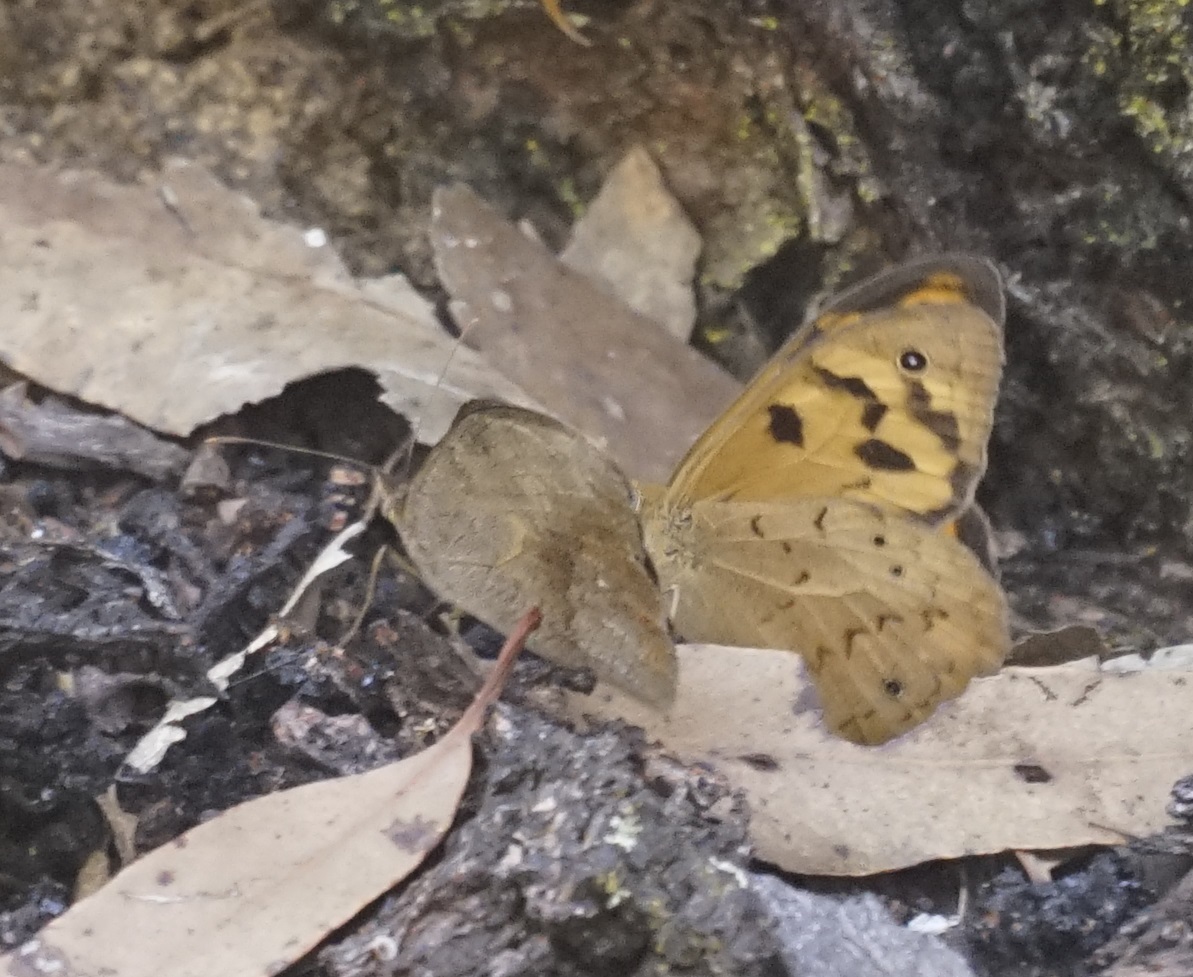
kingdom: Animalia
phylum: Arthropoda
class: Insecta
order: Lepidoptera
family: Nymphalidae
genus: Heteronympha
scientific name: Heteronympha merope
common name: Common brown
